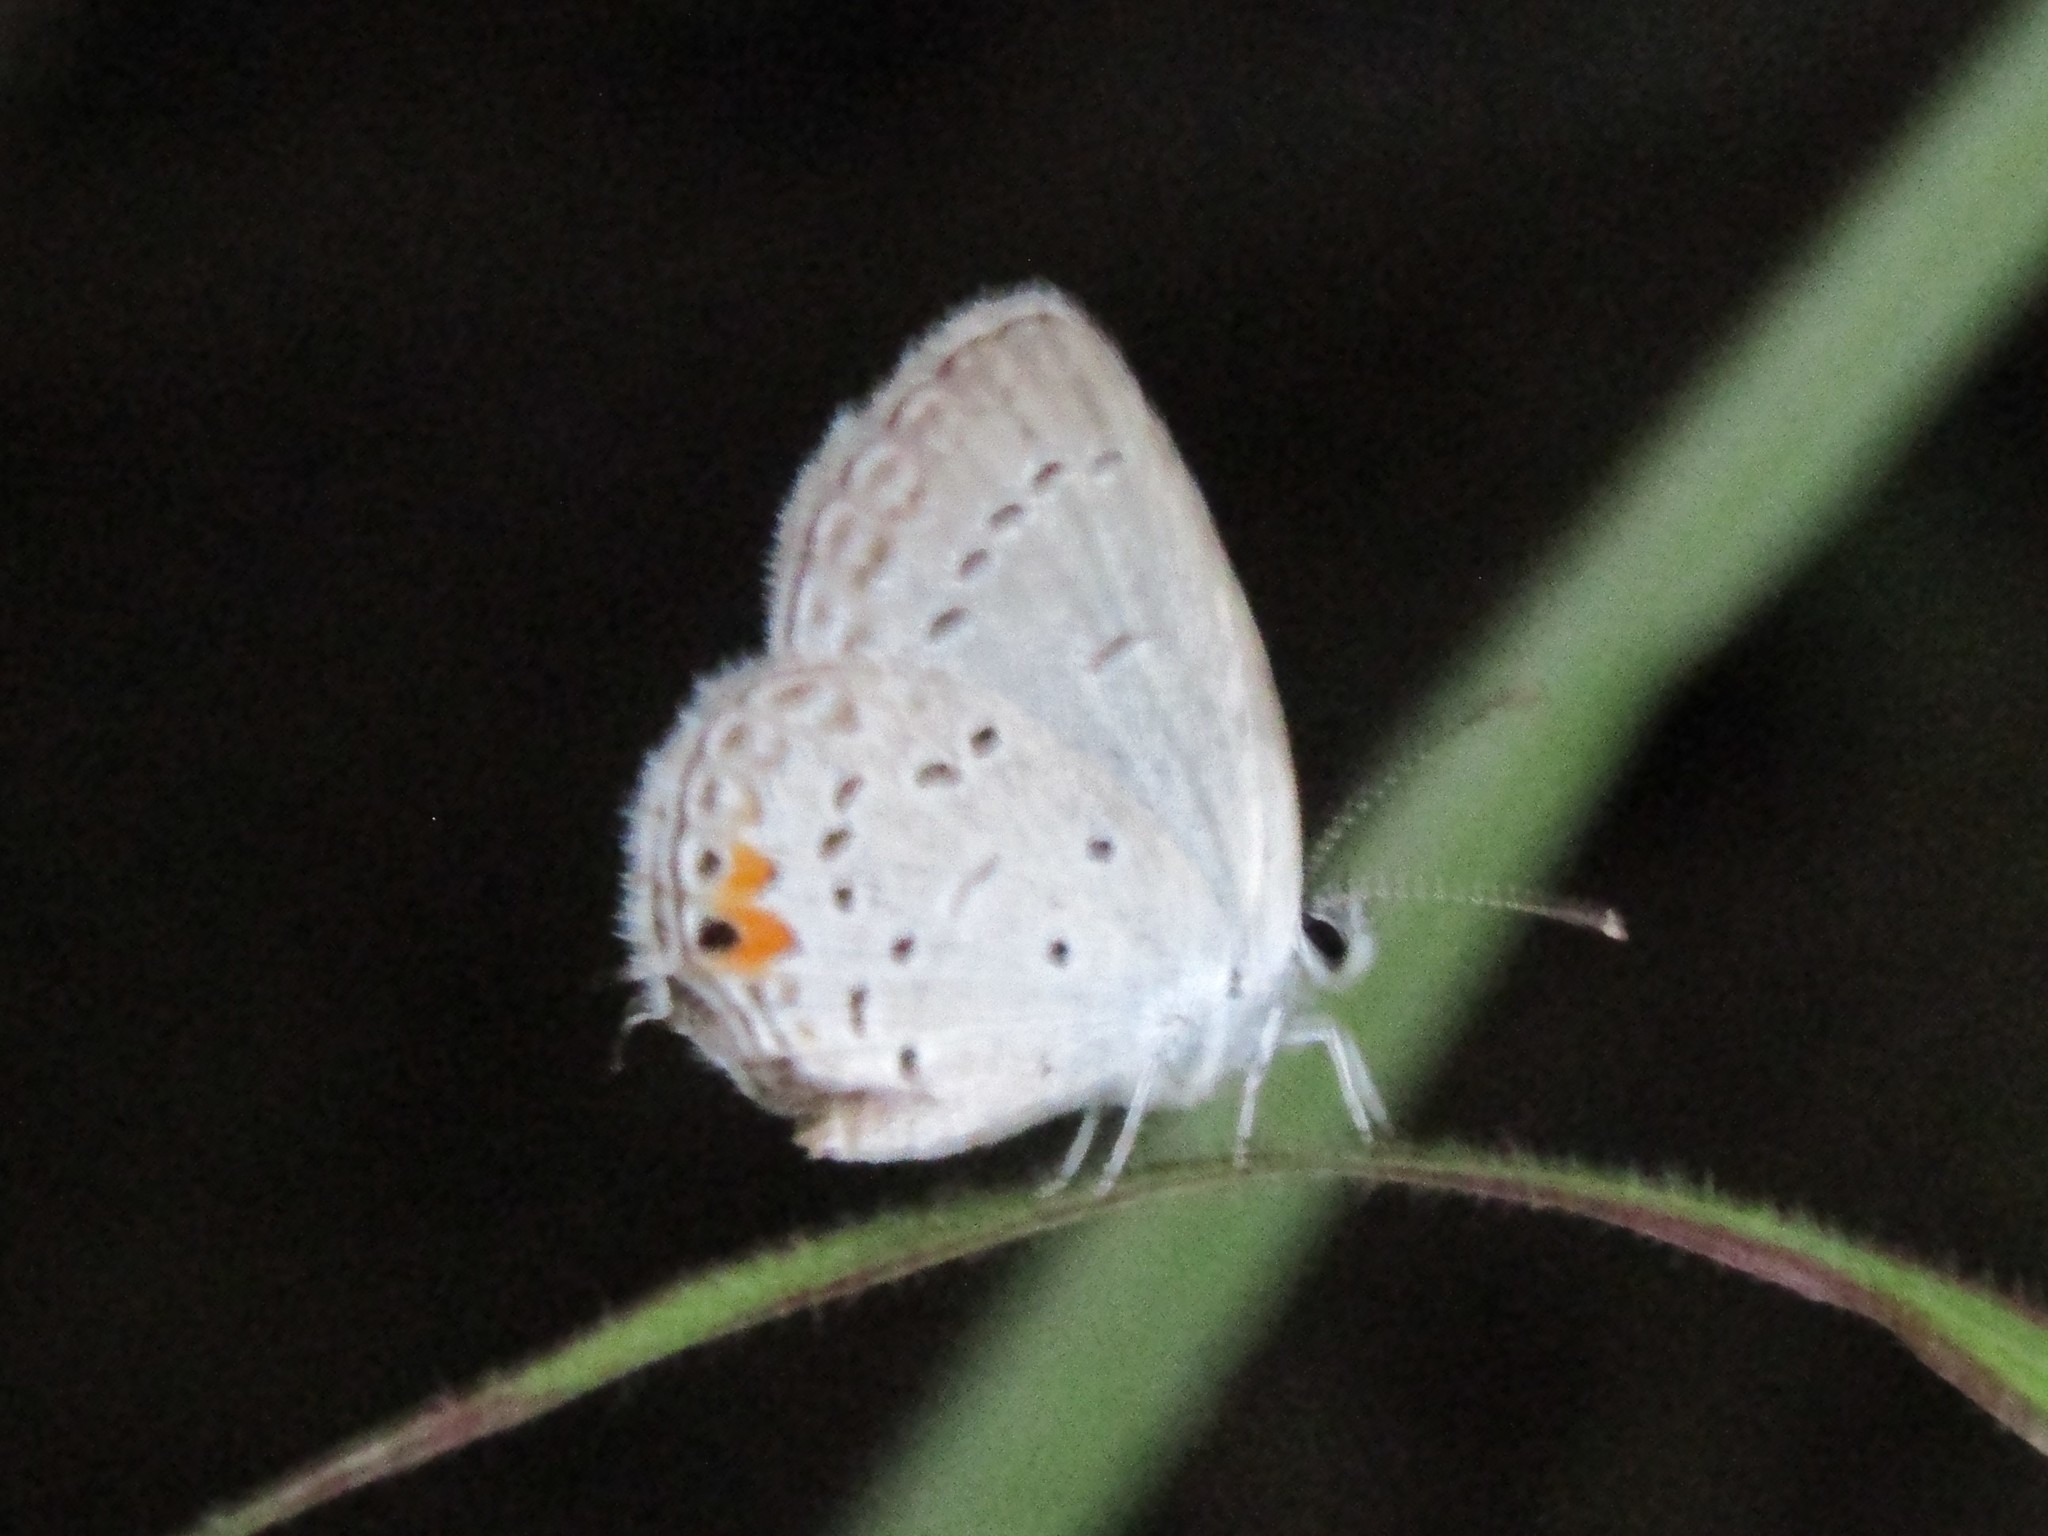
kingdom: Animalia
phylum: Arthropoda
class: Insecta
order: Lepidoptera
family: Lycaenidae
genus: Elkalyce
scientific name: Elkalyce comyntas
